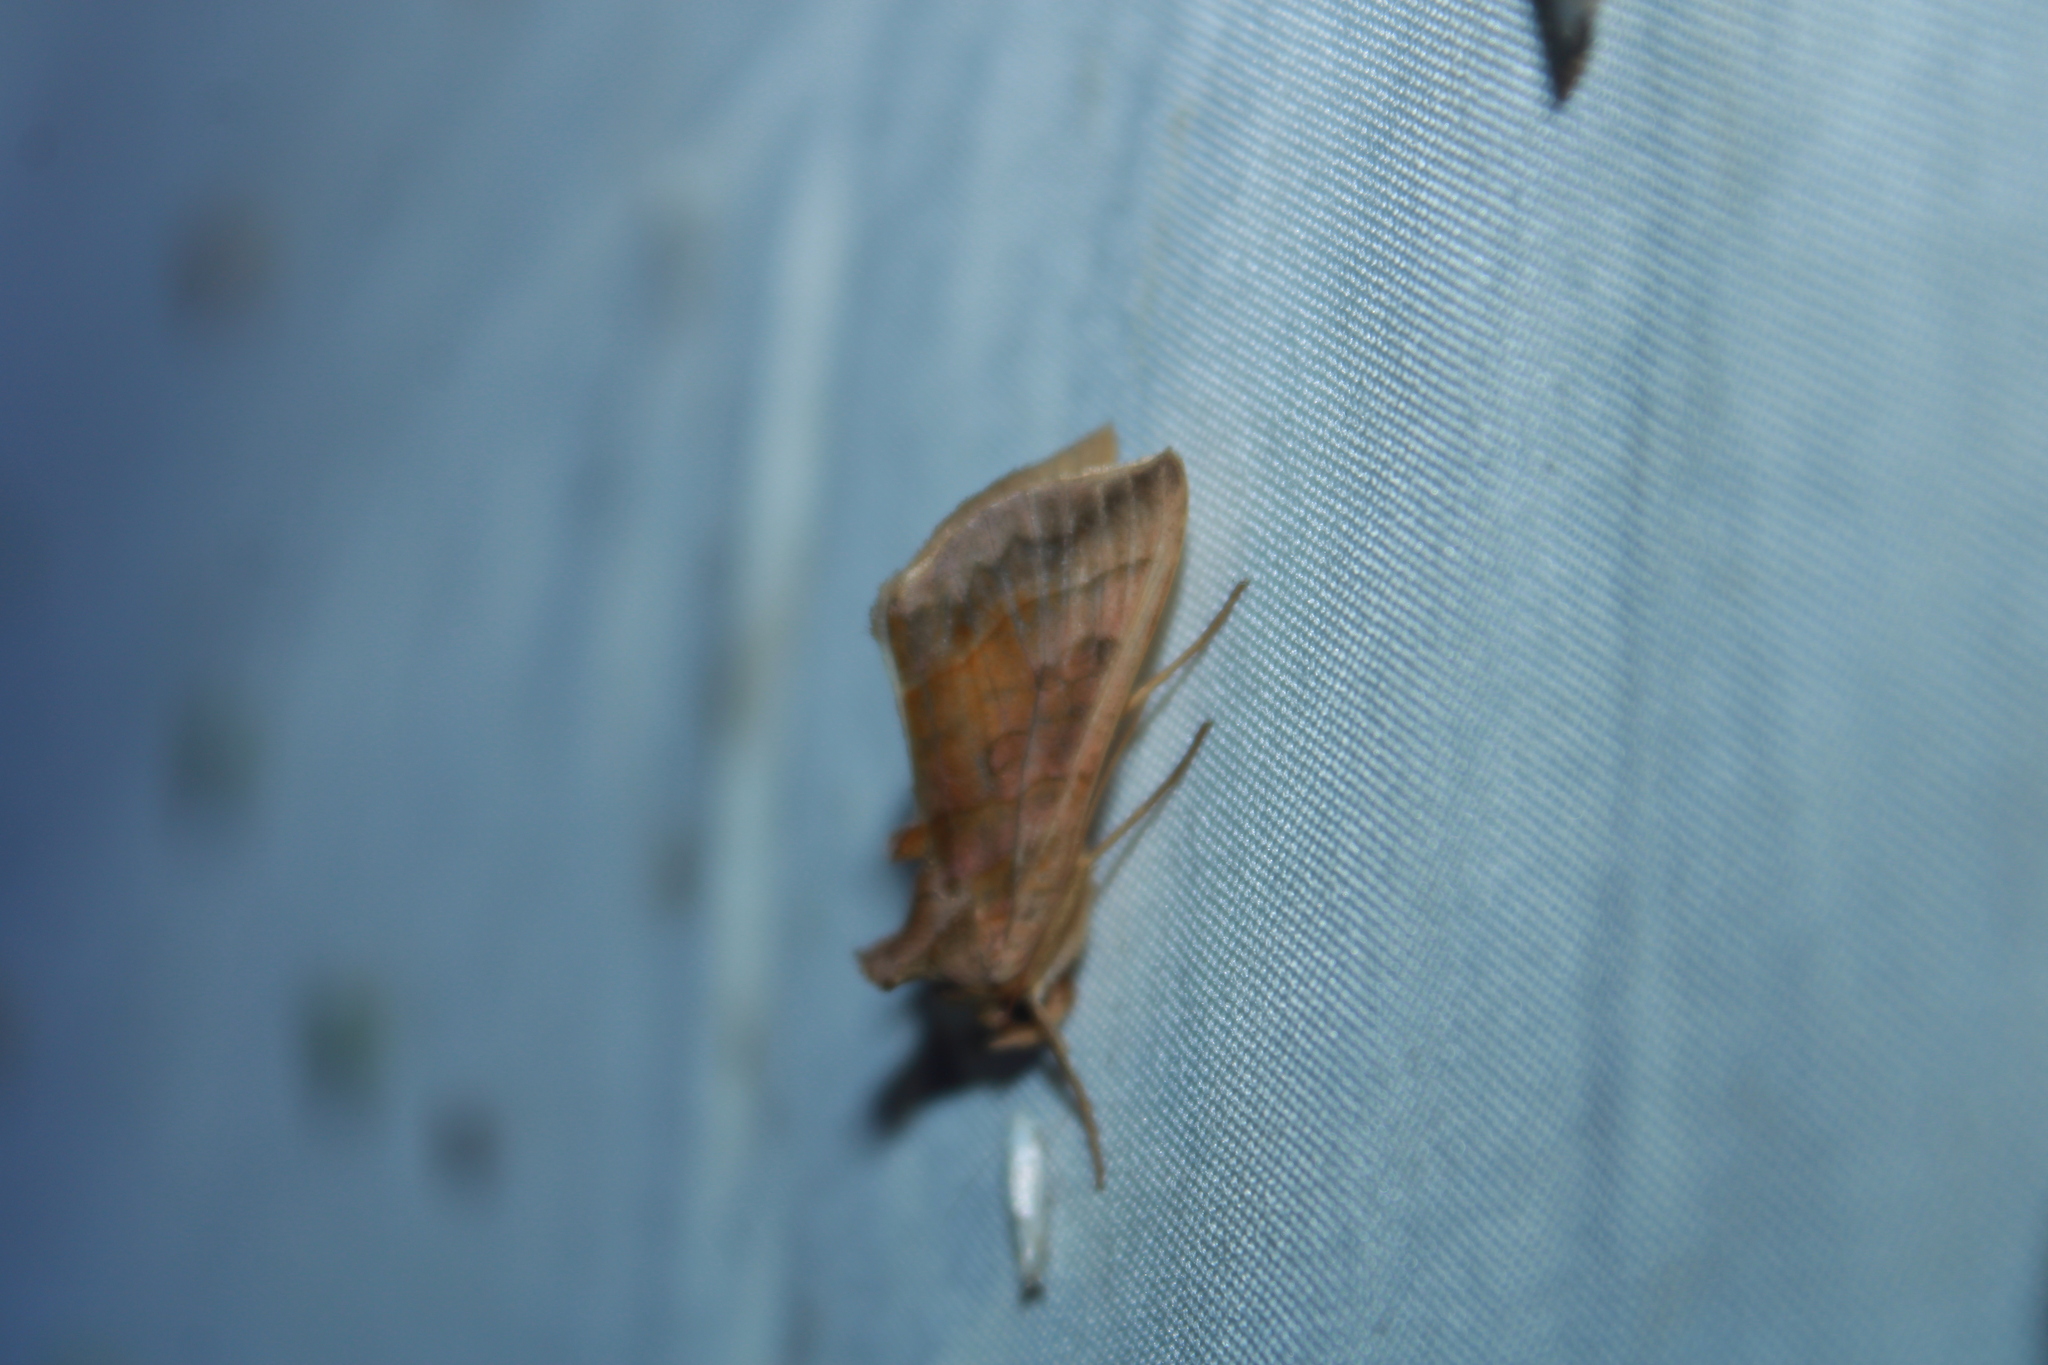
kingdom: Animalia
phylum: Arthropoda
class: Insecta
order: Lepidoptera
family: Noctuidae
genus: Diachrysia
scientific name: Diachrysia aereoides
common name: Dark-spotted looper moth
